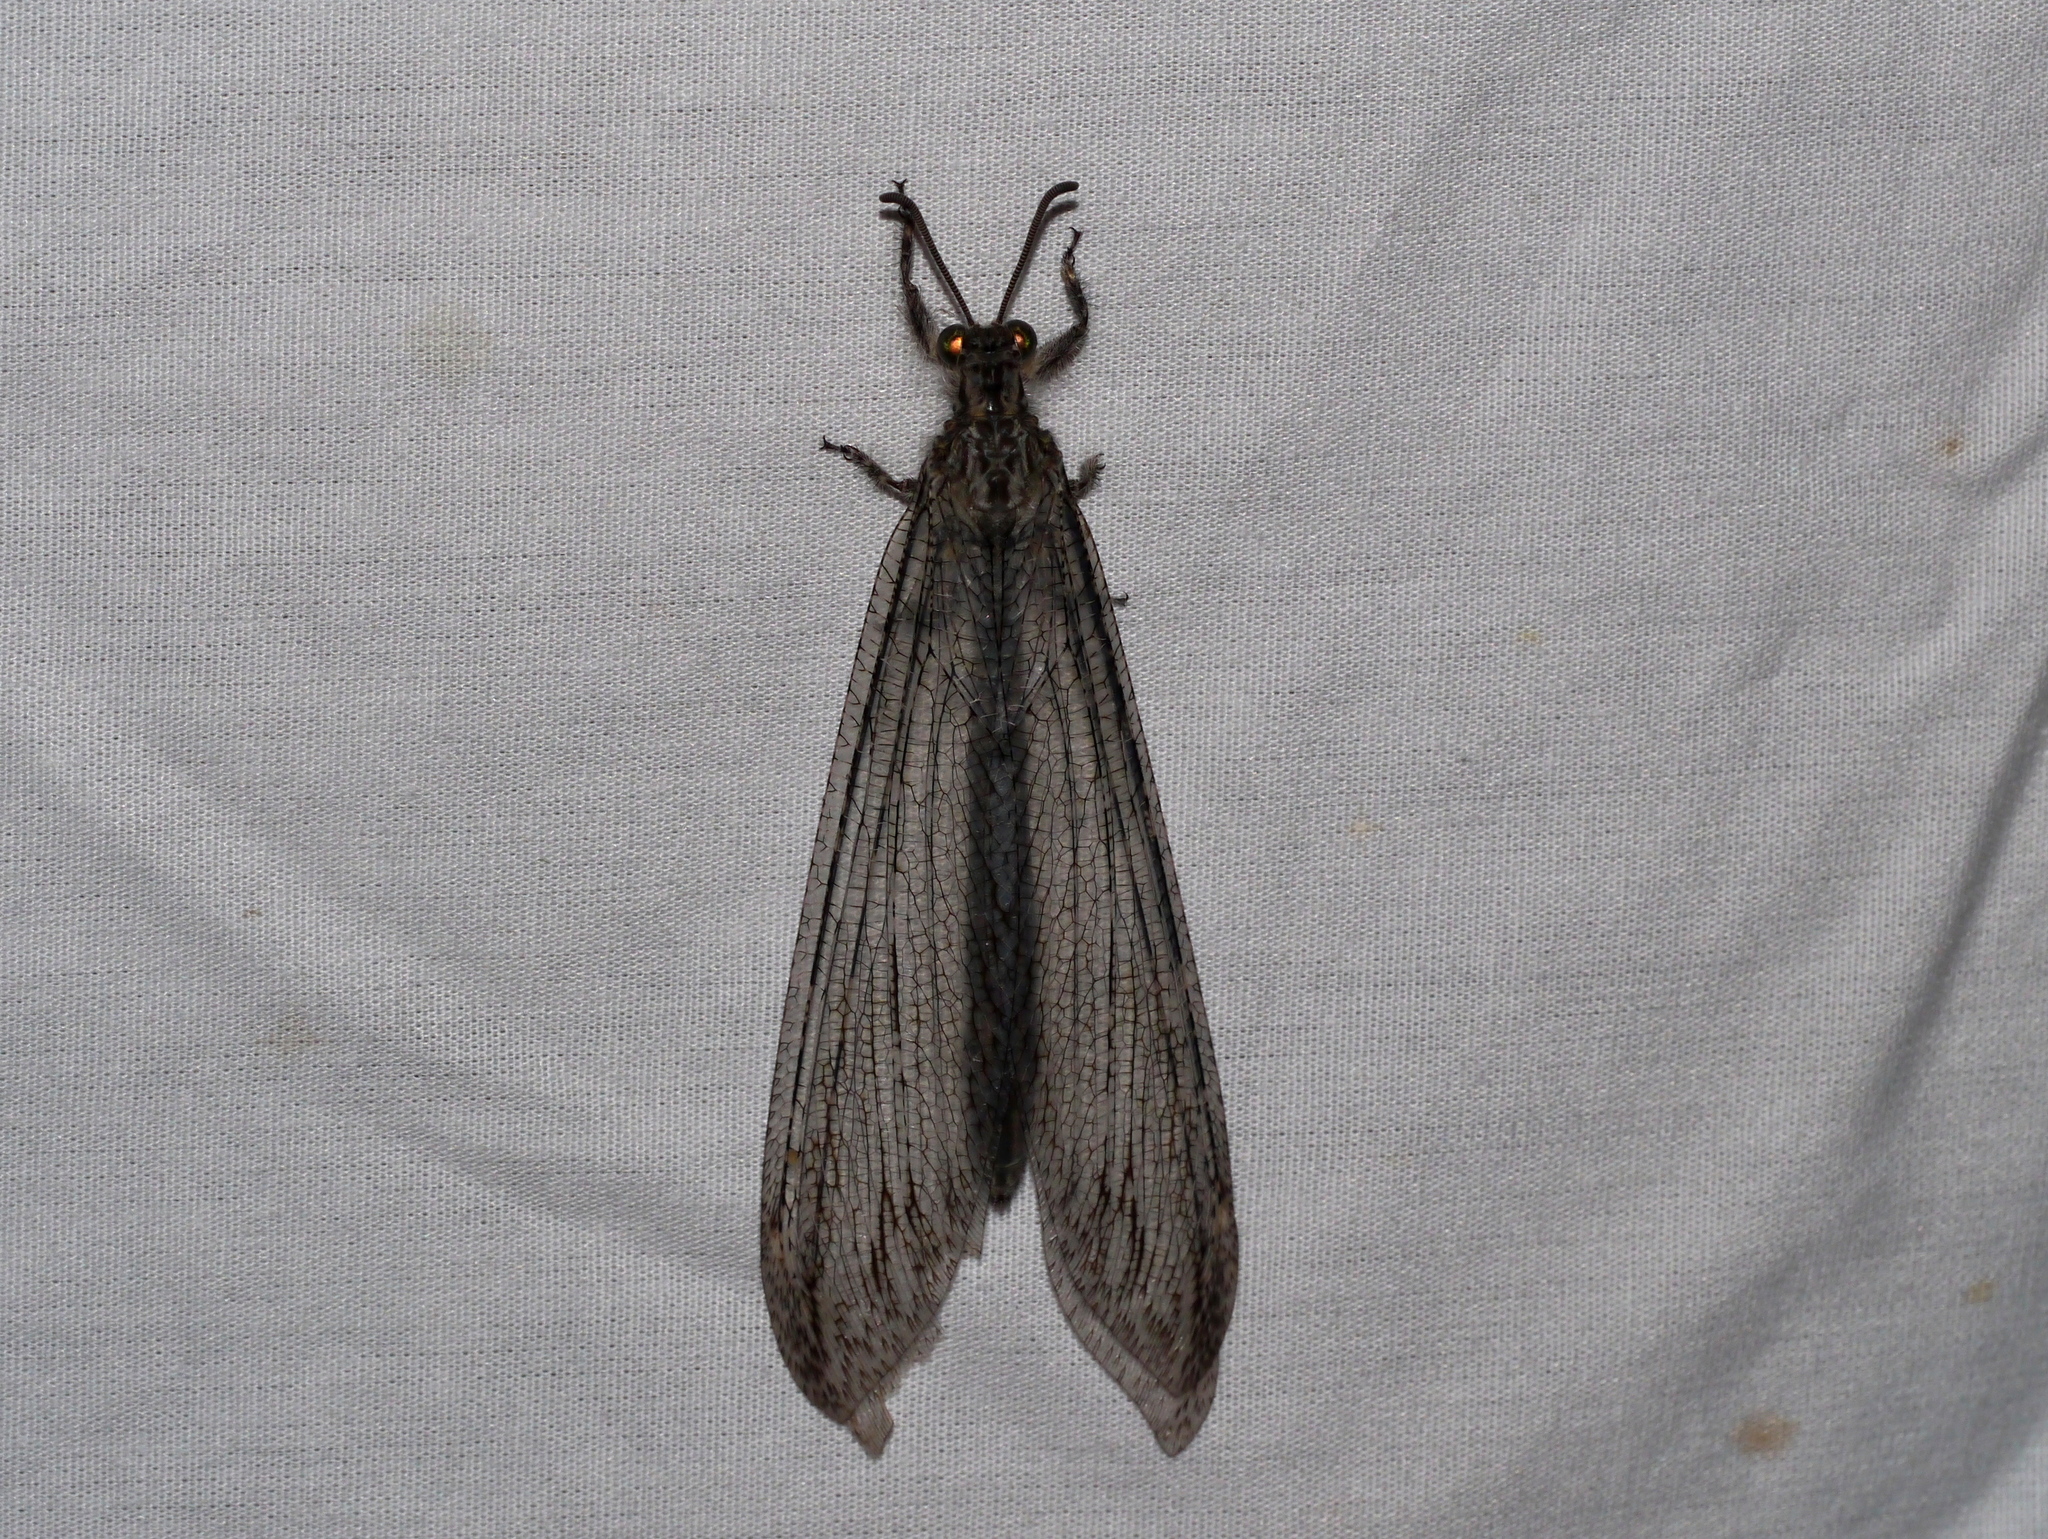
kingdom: Animalia
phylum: Arthropoda
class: Insecta
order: Neuroptera
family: Myrmeleontidae
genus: Vella
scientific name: Vella fallax
